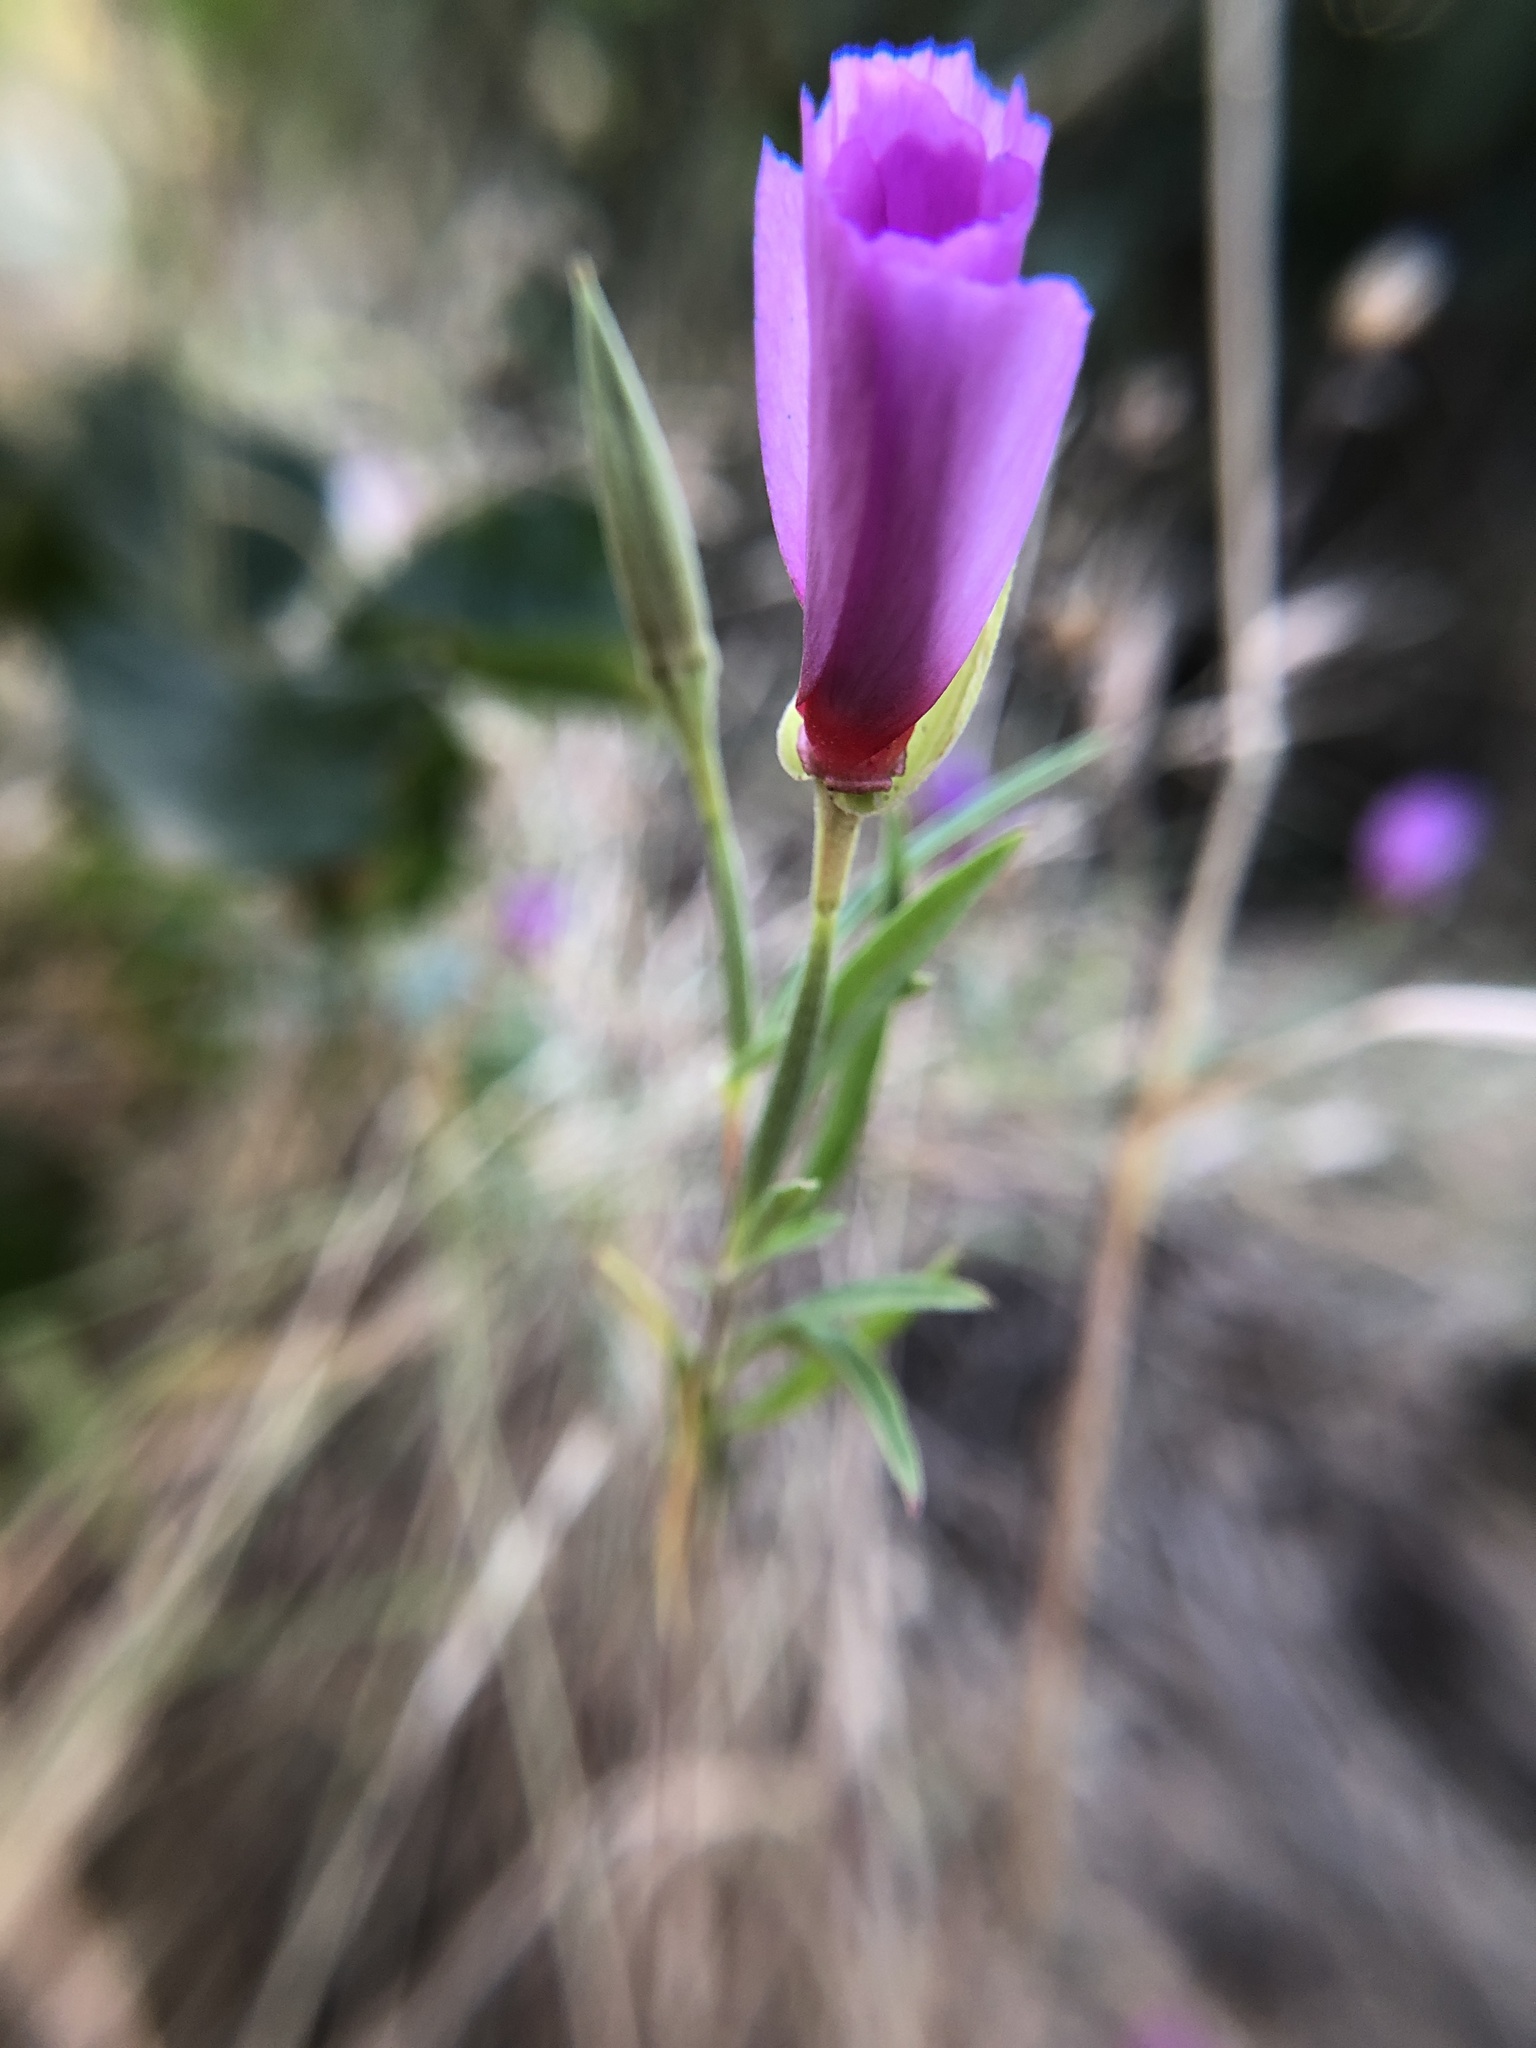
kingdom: Plantae
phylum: Tracheophyta
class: Magnoliopsida
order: Myrtales
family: Onagraceae
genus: Clarkia
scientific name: Clarkia rubicunda
